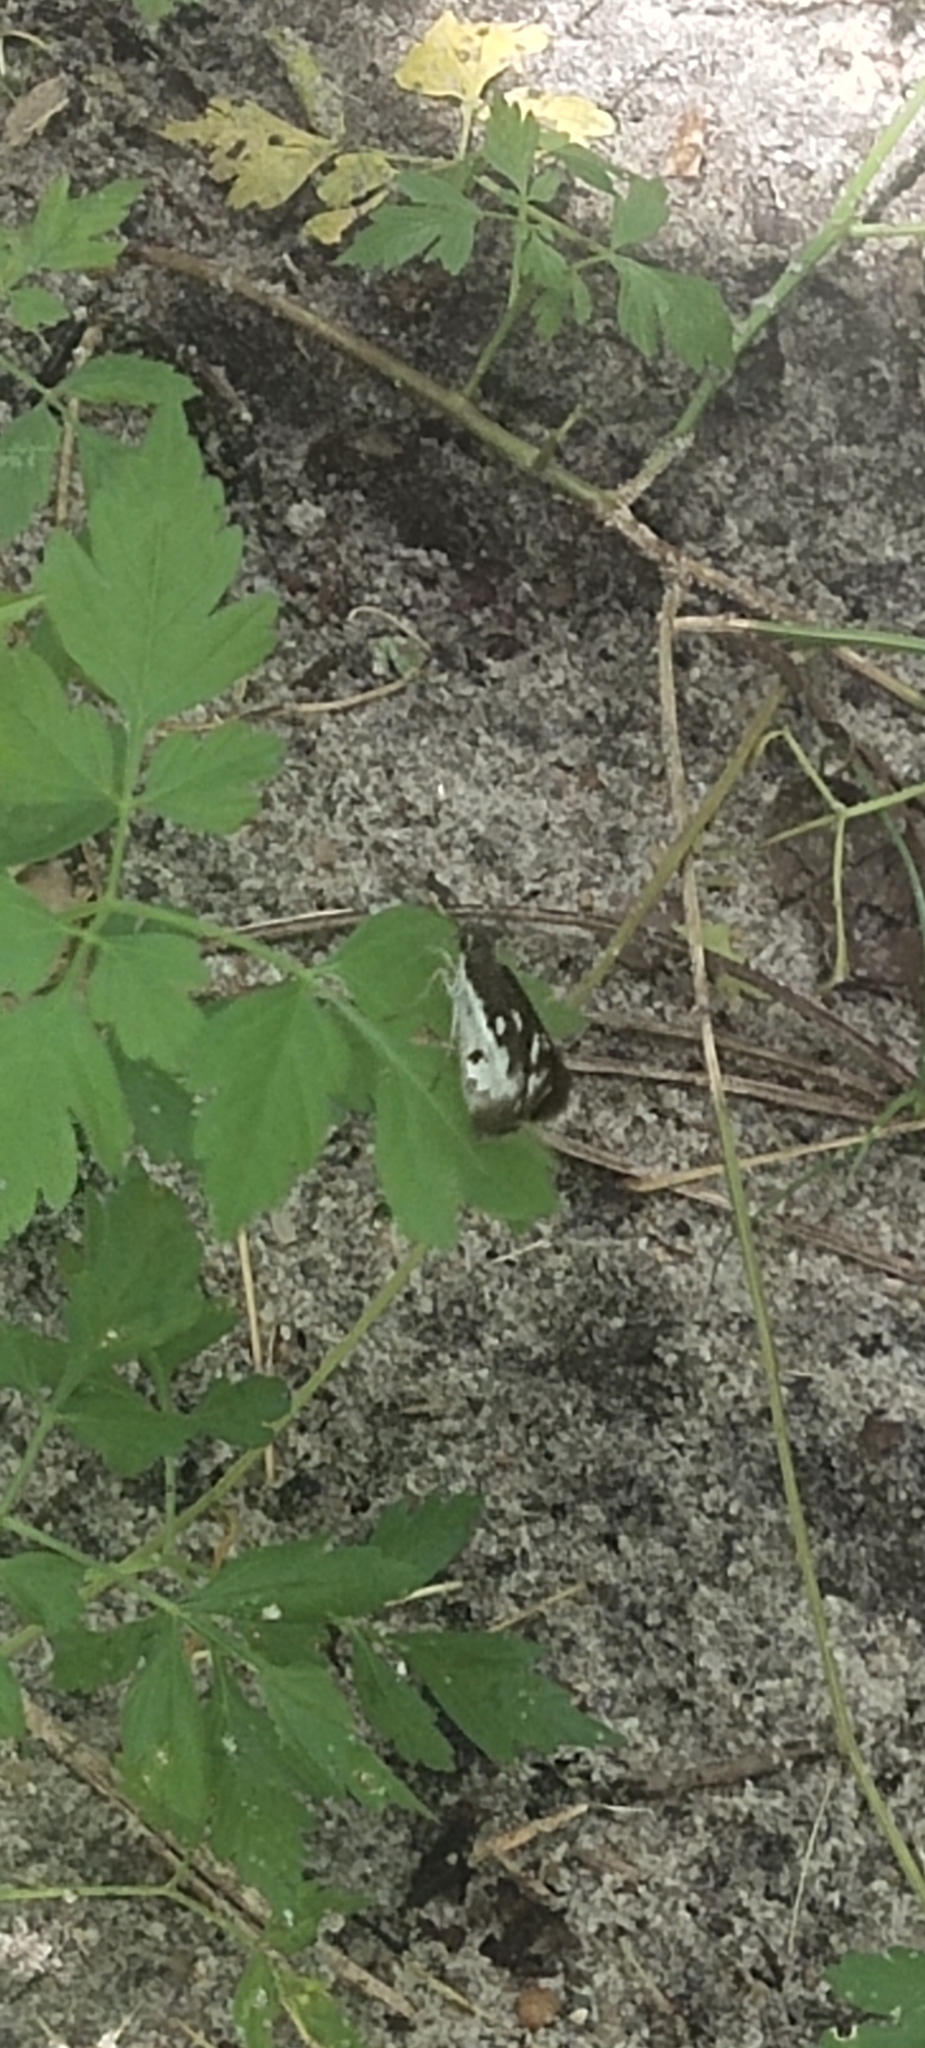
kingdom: Animalia
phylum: Arthropoda
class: Insecta
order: Lepidoptera
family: Hesperiidae
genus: Udaspes
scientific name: Udaspes folus
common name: Grass demon
